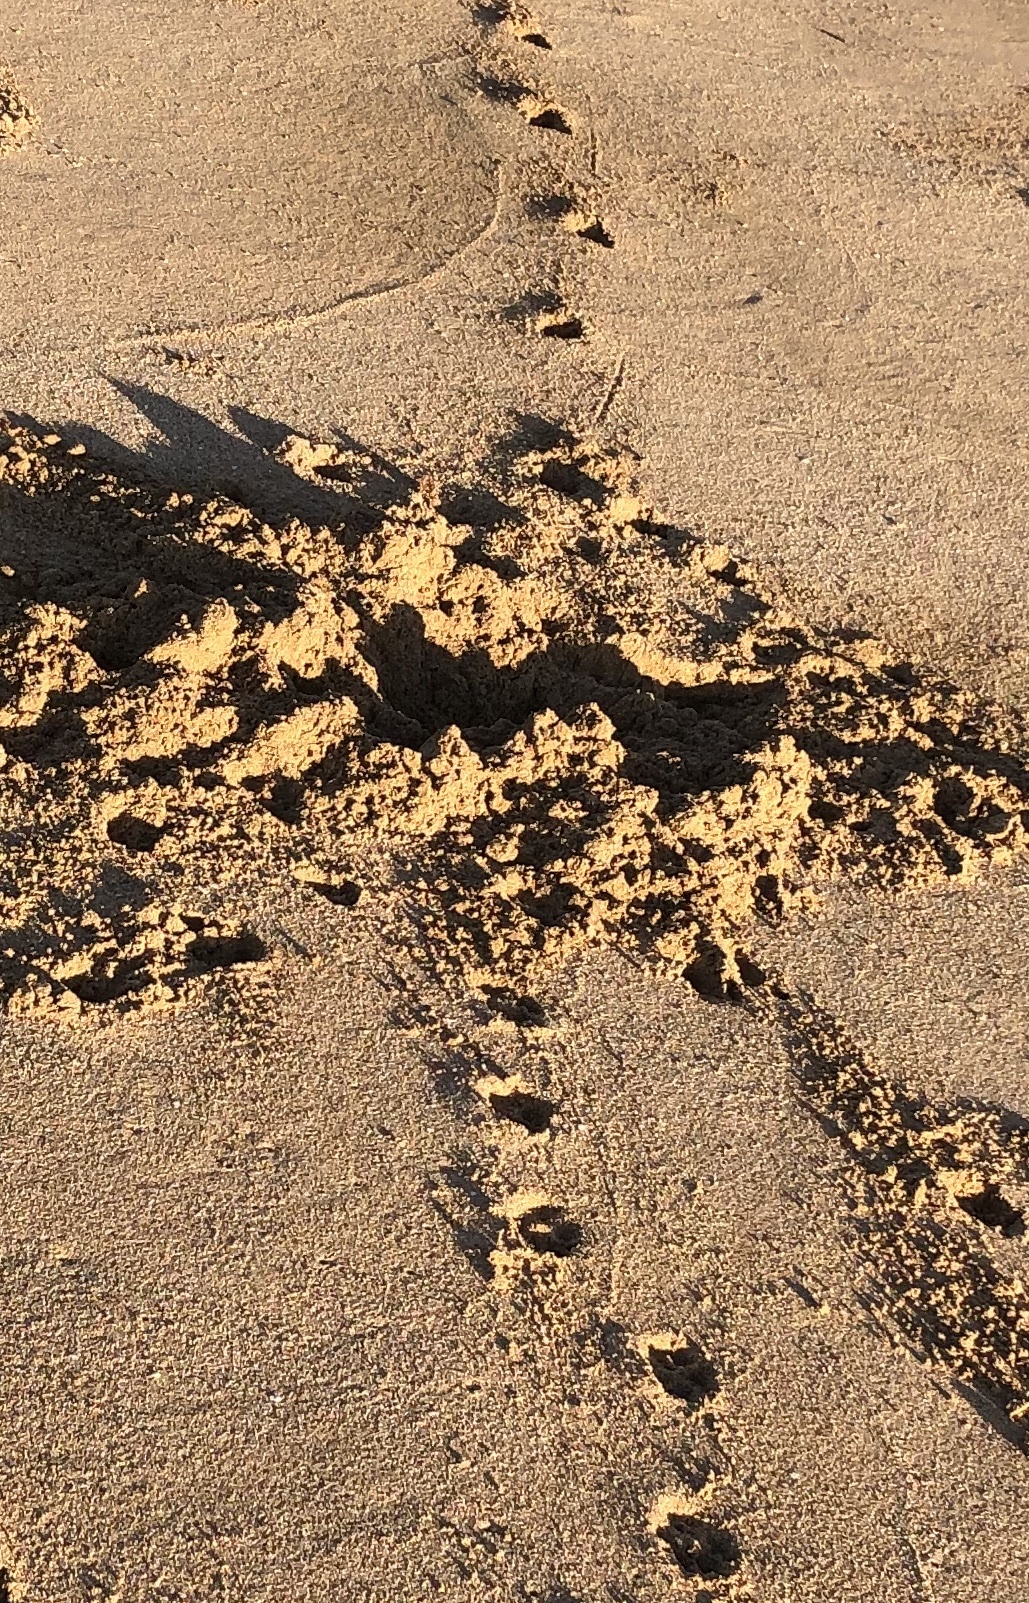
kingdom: Animalia
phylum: Chordata
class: Mammalia
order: Artiodactyla
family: Suidae
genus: Sus
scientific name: Sus scrofa
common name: Wild boar
